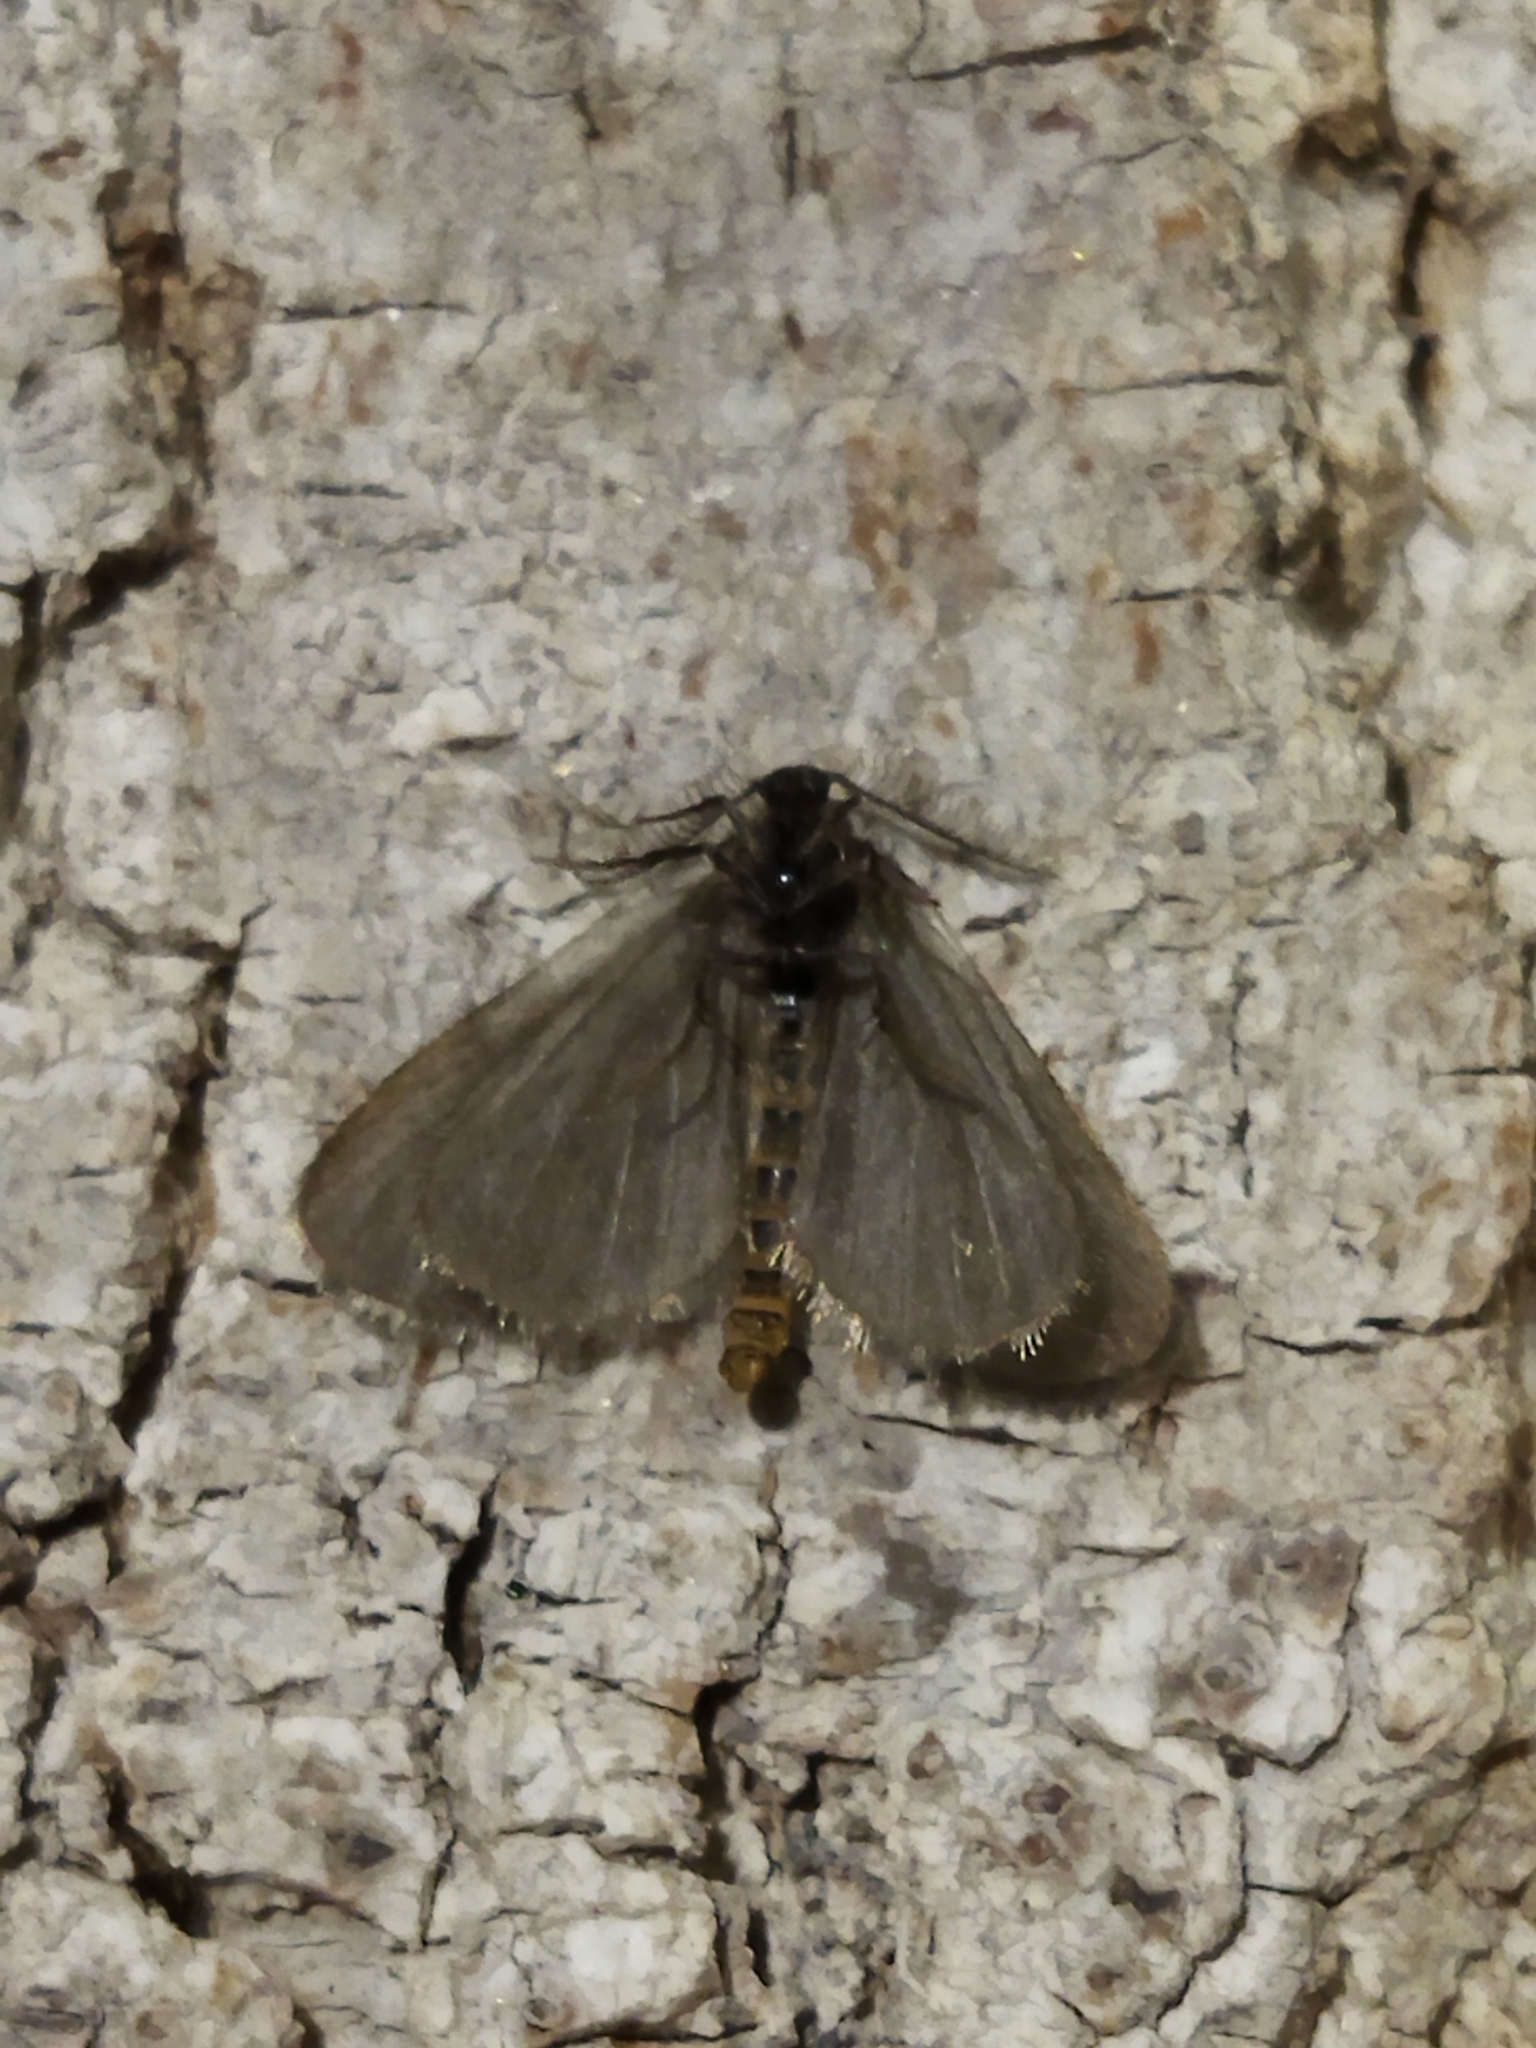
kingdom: Animalia
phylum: Arthropoda
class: Insecta
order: Lepidoptera
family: Psychidae
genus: Rebelia
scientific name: Rebelia perlucidella
